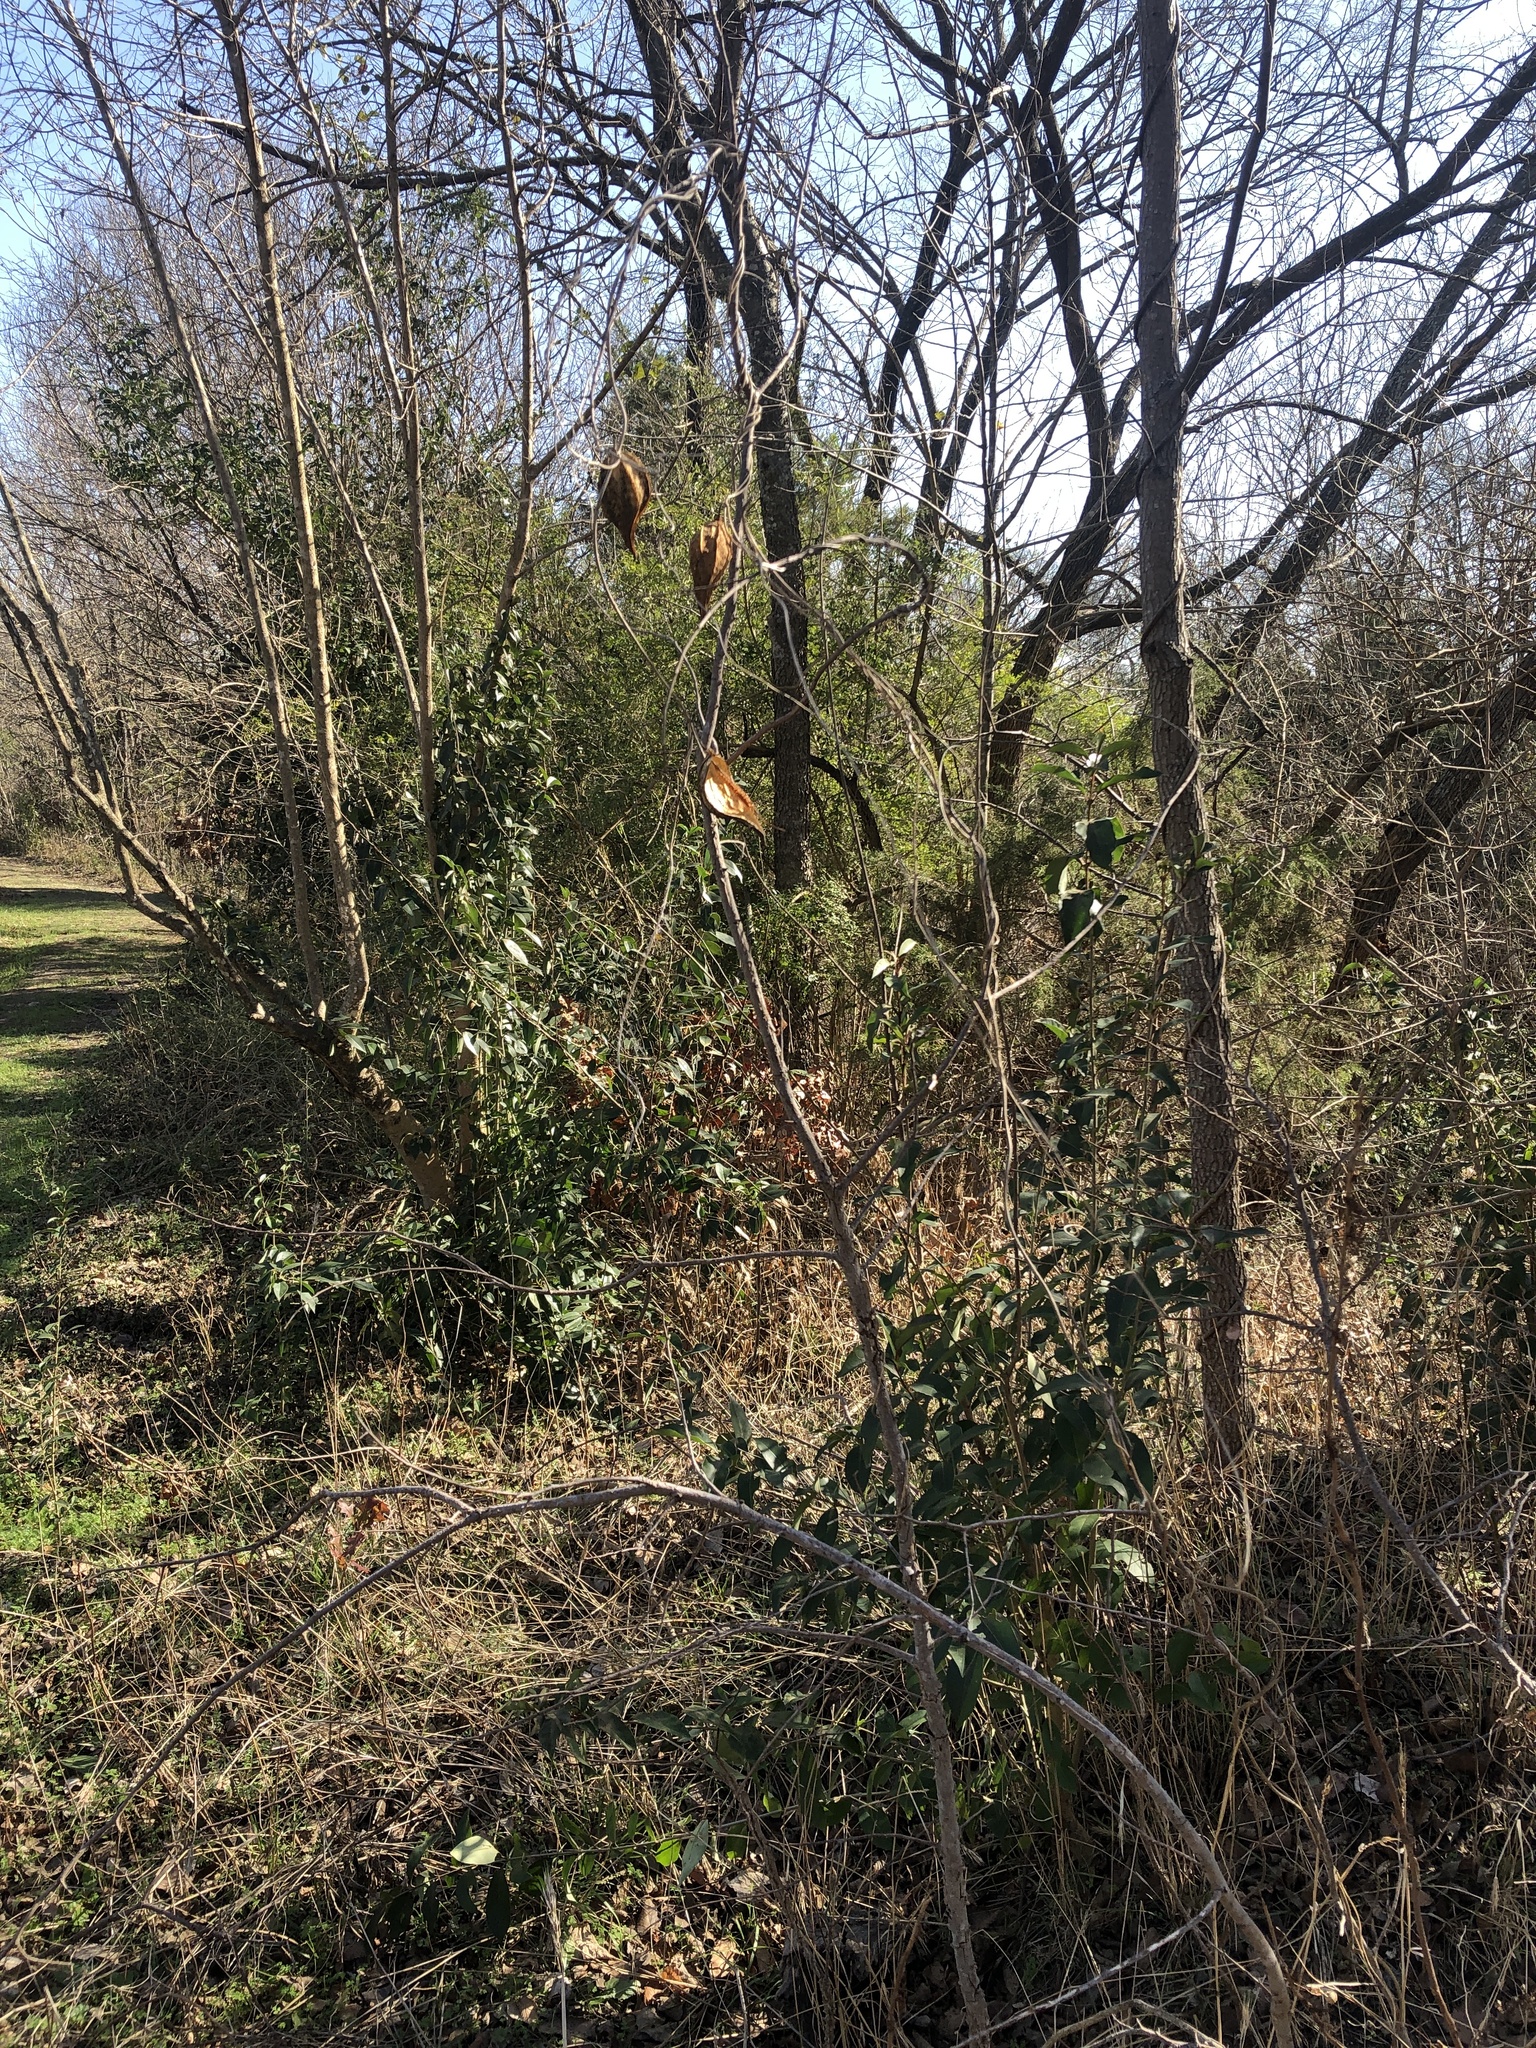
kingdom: Plantae
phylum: Tracheophyta
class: Magnoliopsida
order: Gentianales
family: Apocynaceae
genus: Gonolobus
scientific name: Gonolobus suberosus
